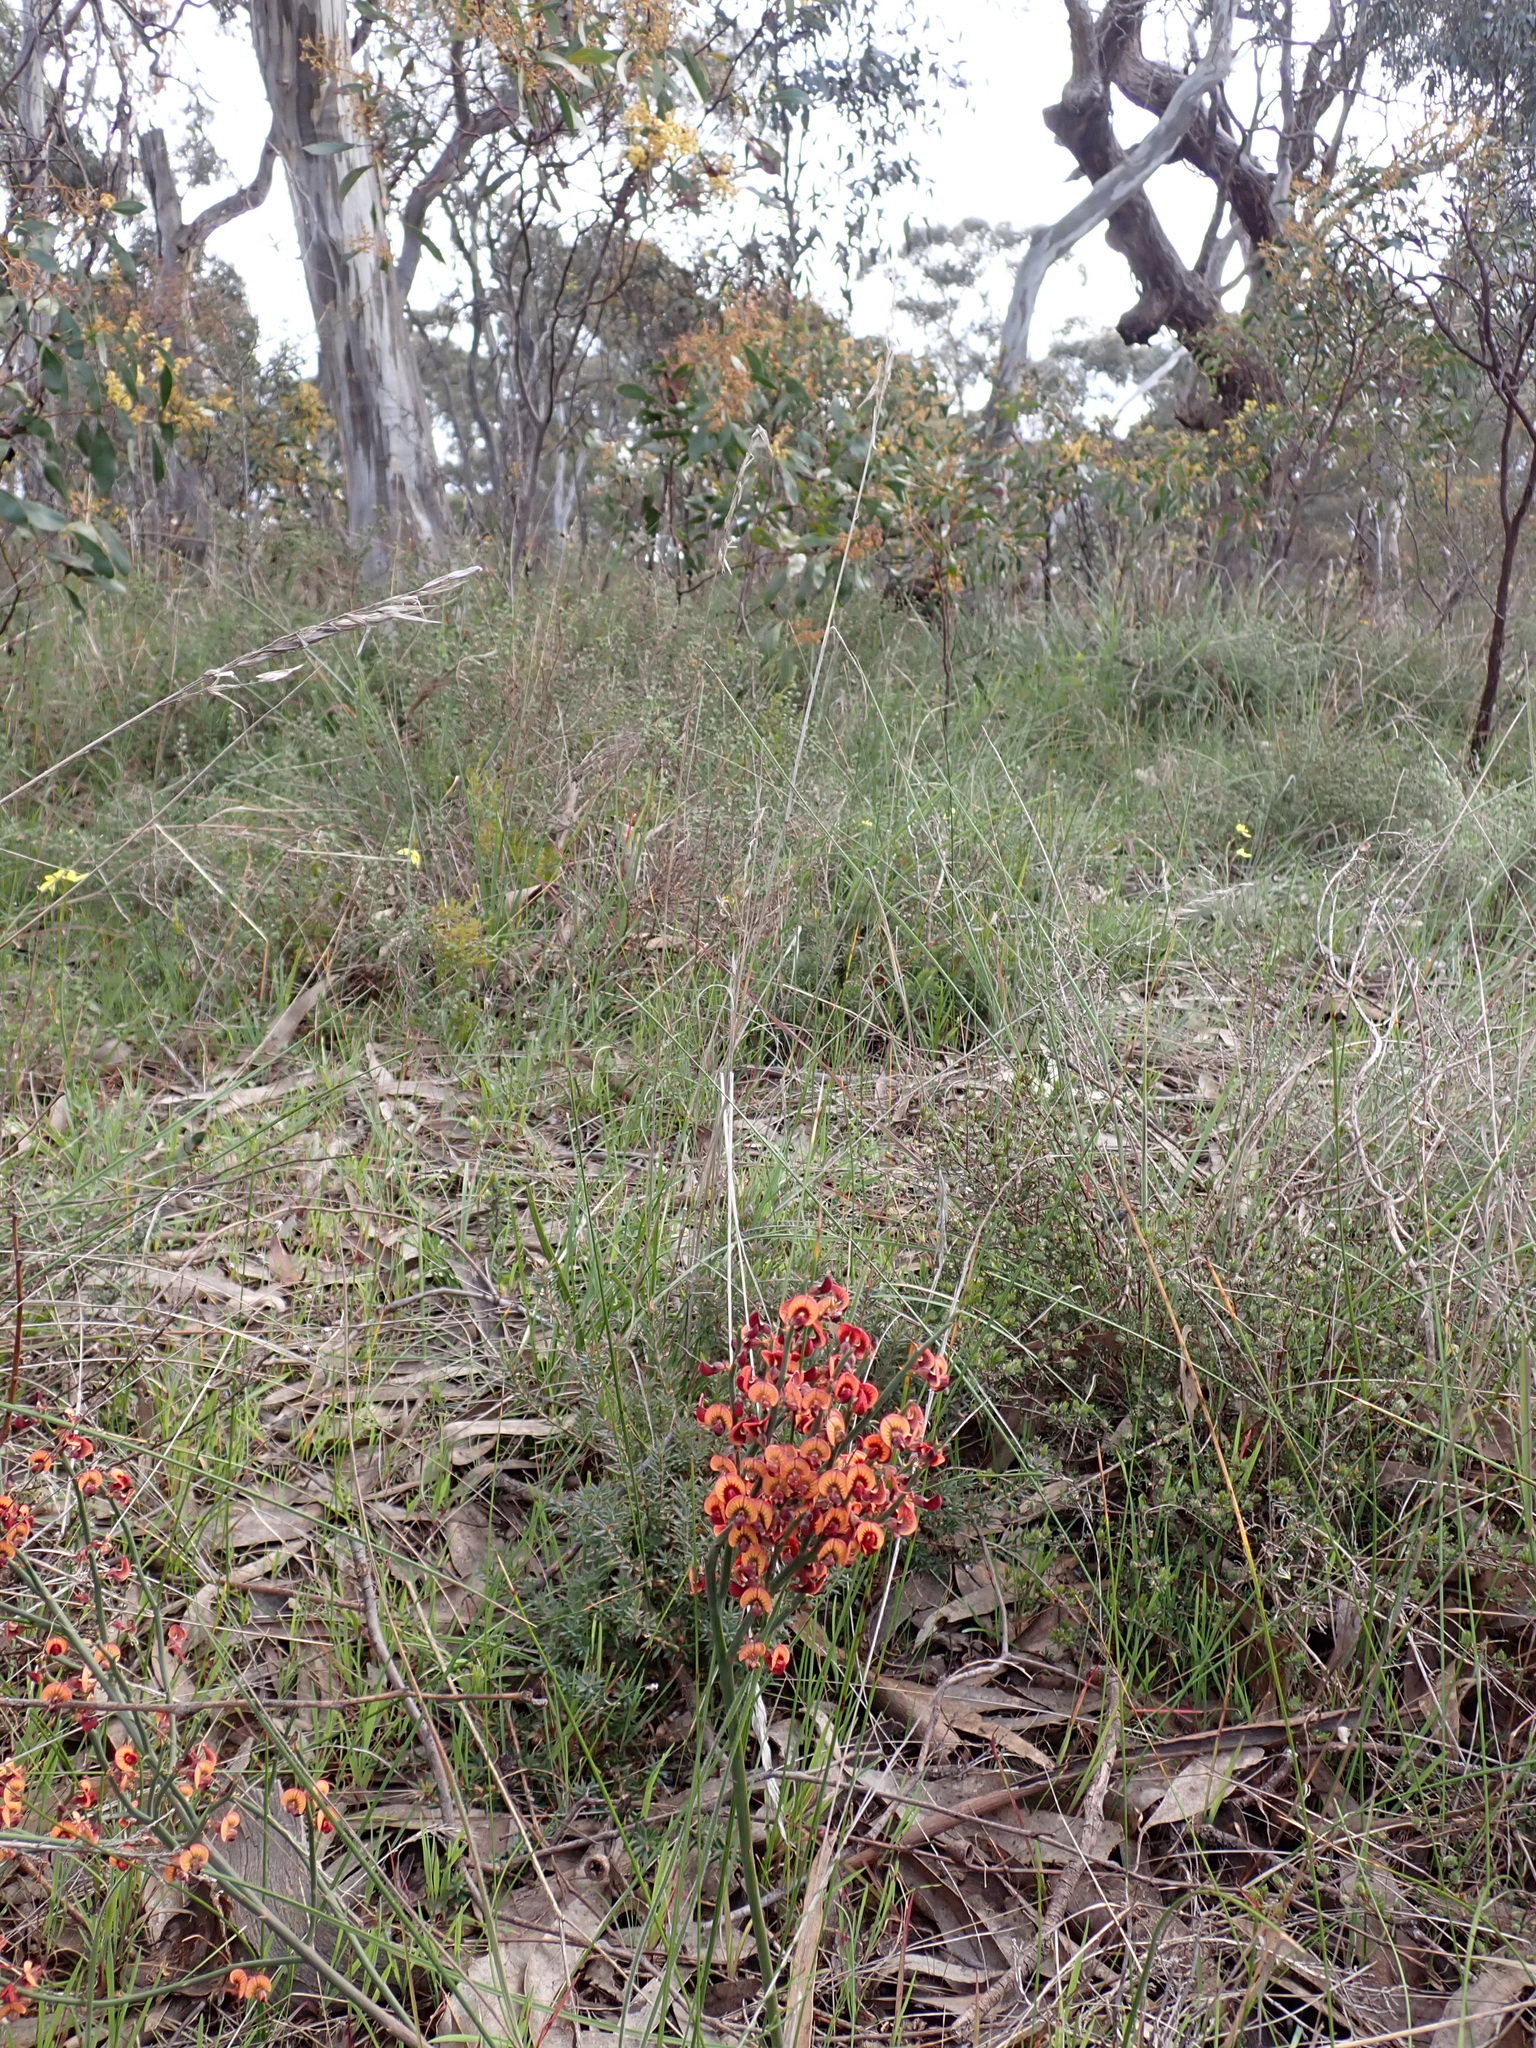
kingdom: Plantae
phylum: Tracheophyta
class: Magnoliopsida
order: Fabales
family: Fabaceae
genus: Daviesia
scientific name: Daviesia brevifolia
